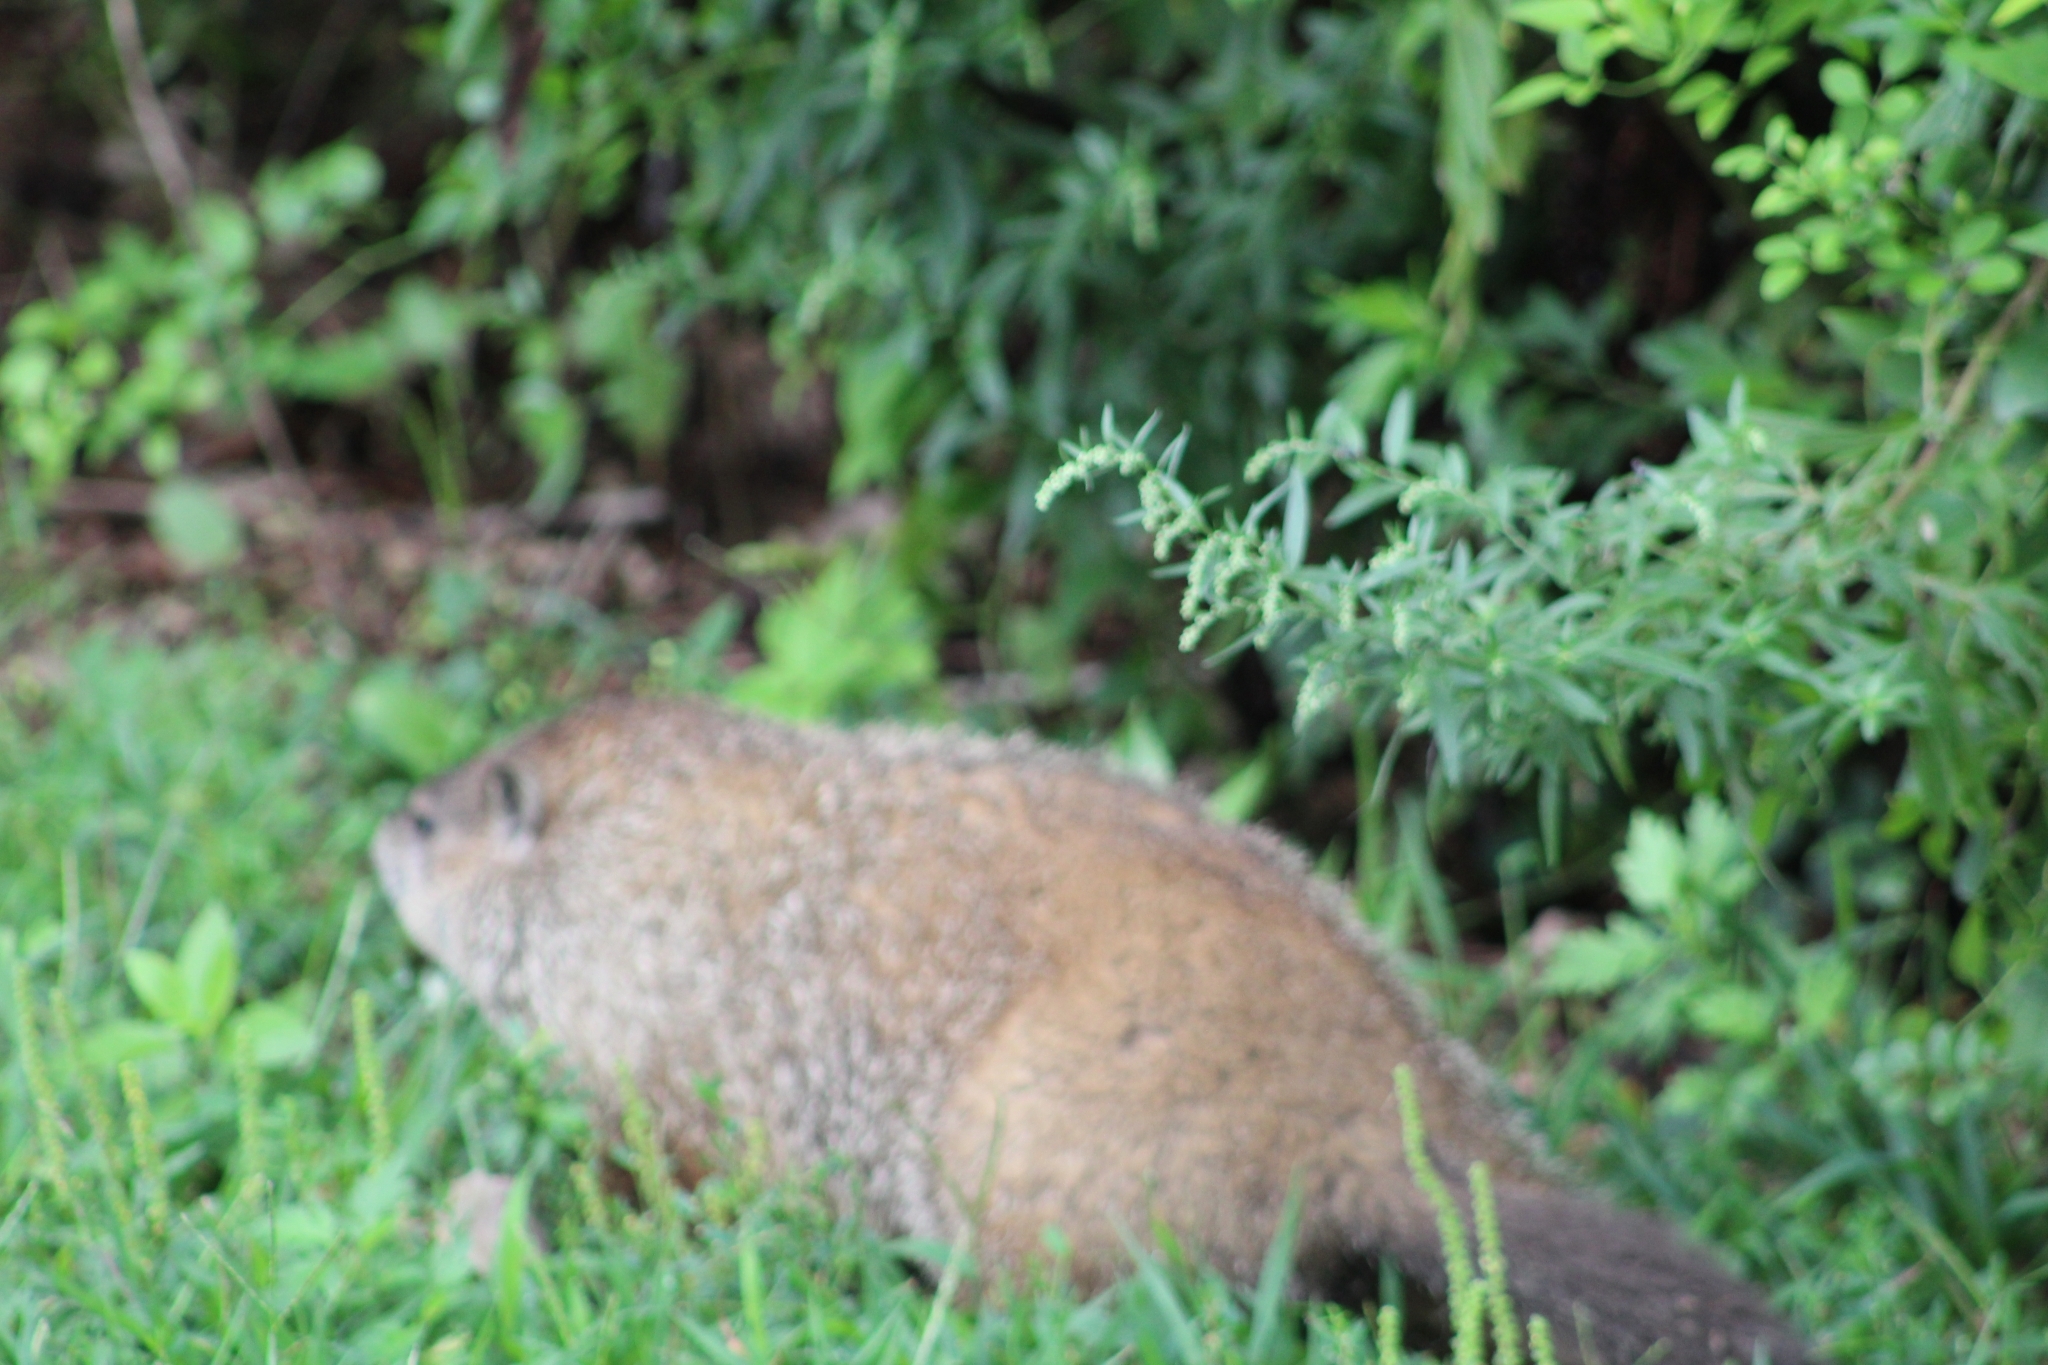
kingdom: Animalia
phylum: Chordata
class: Mammalia
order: Rodentia
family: Sciuridae
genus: Marmota
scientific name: Marmota monax
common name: Groundhog
